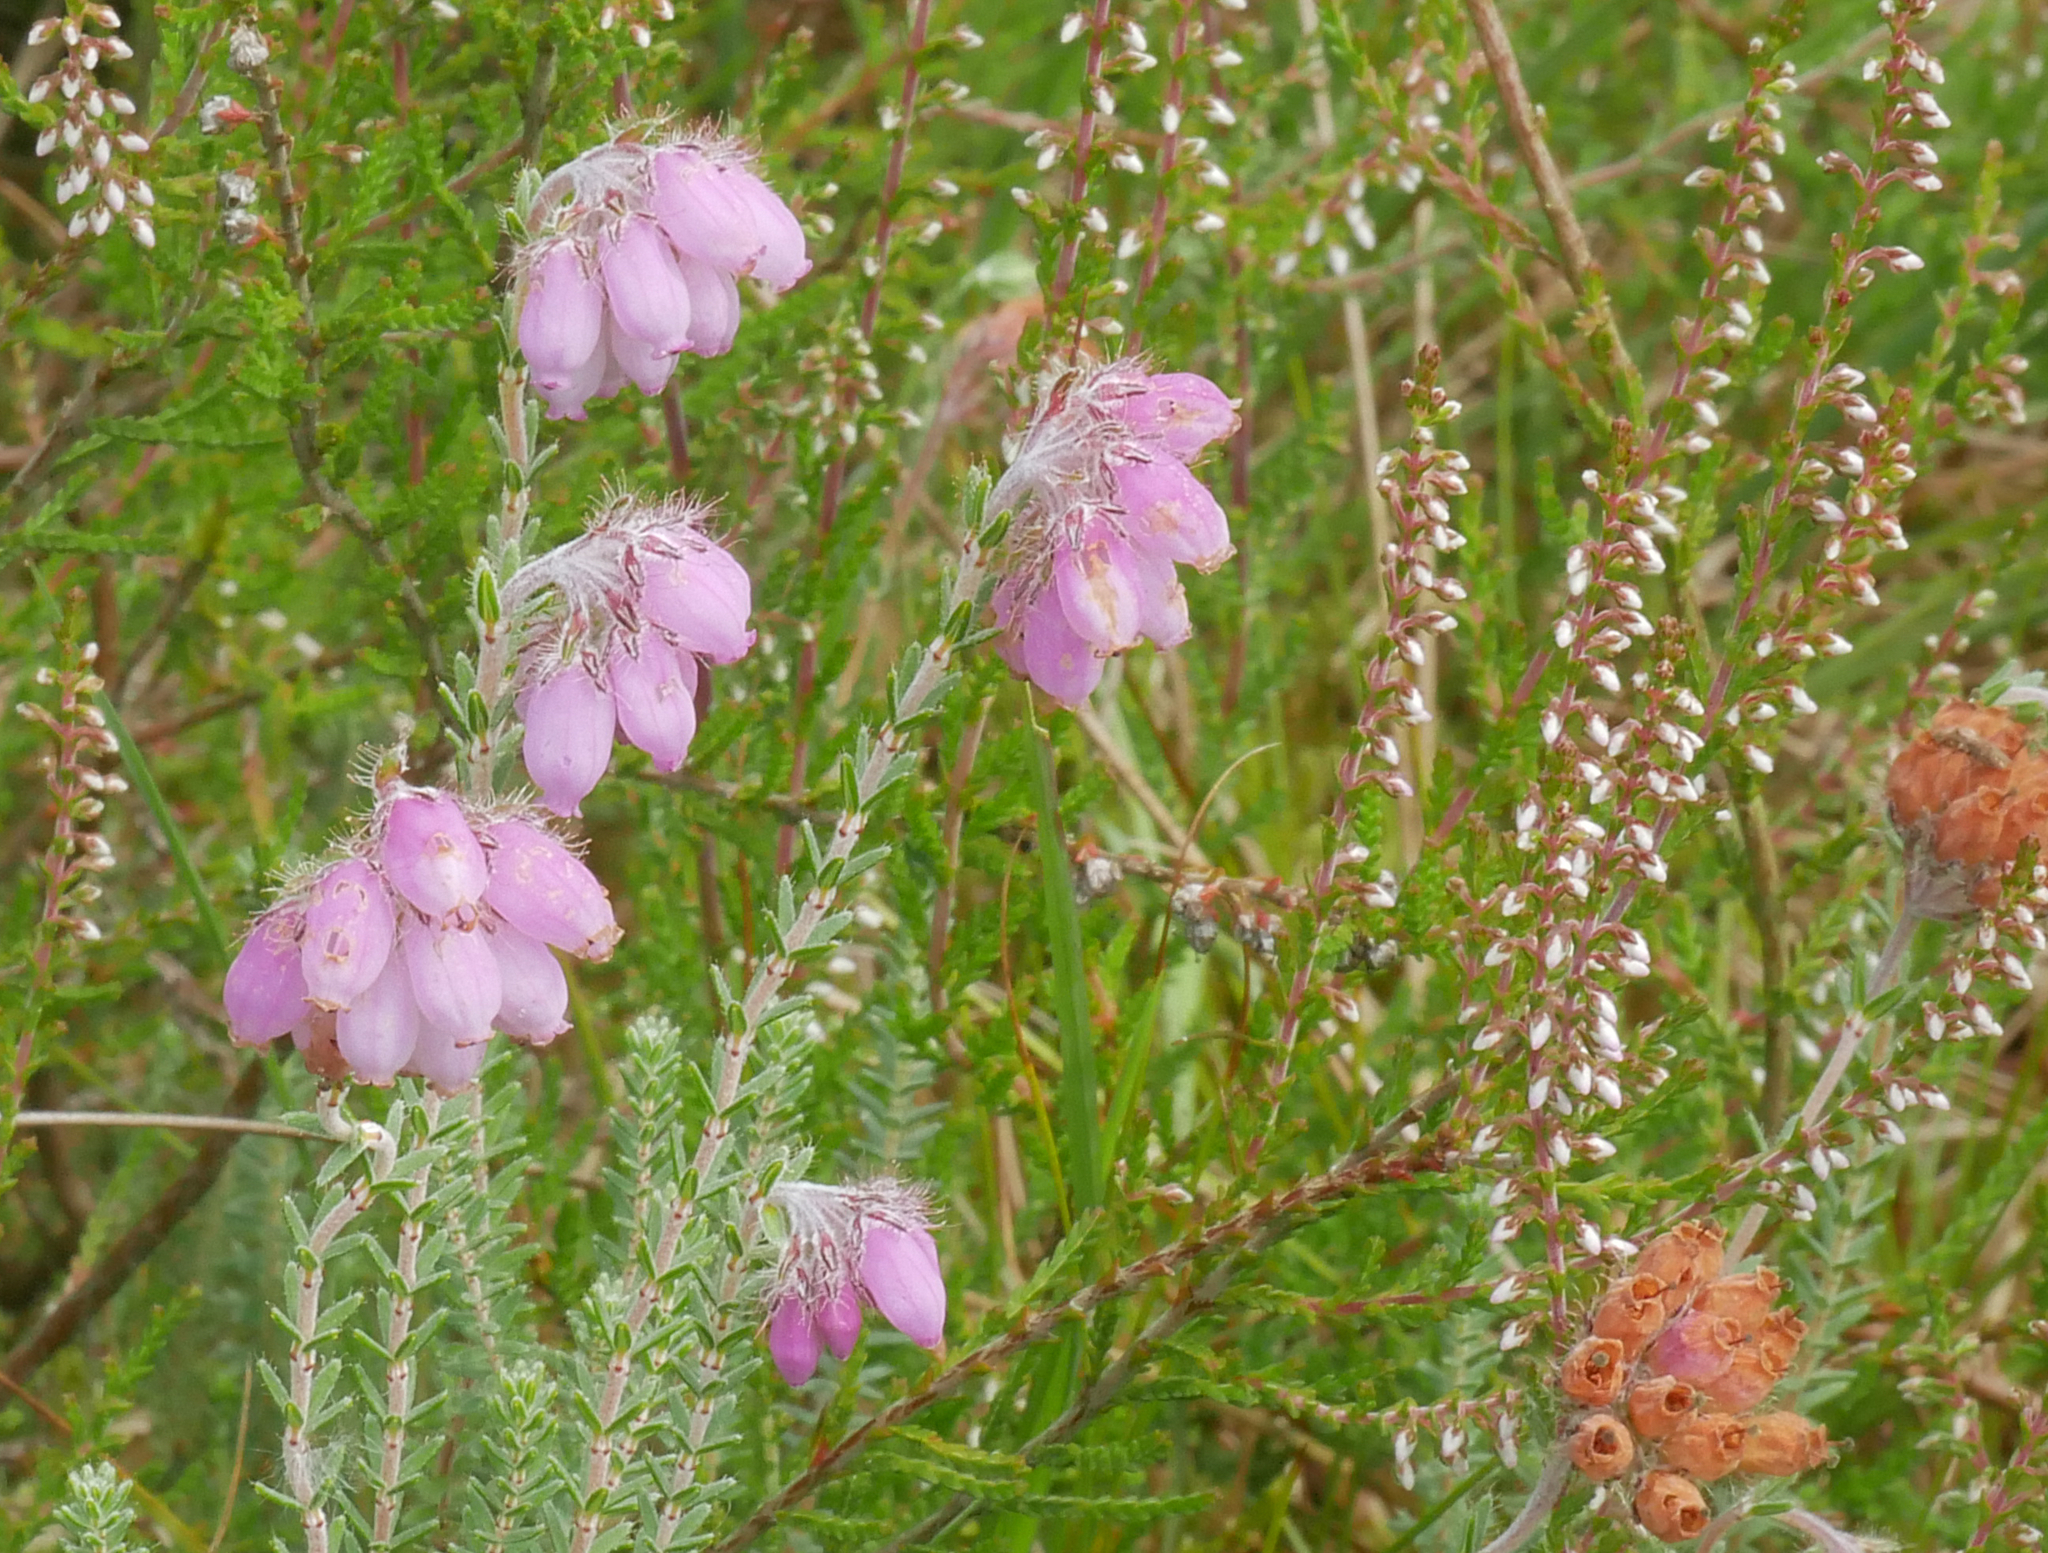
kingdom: Plantae
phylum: Tracheophyta
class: Magnoliopsida
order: Ericales
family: Ericaceae
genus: Erica
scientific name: Erica tetralix
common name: Cross-leaved heath
